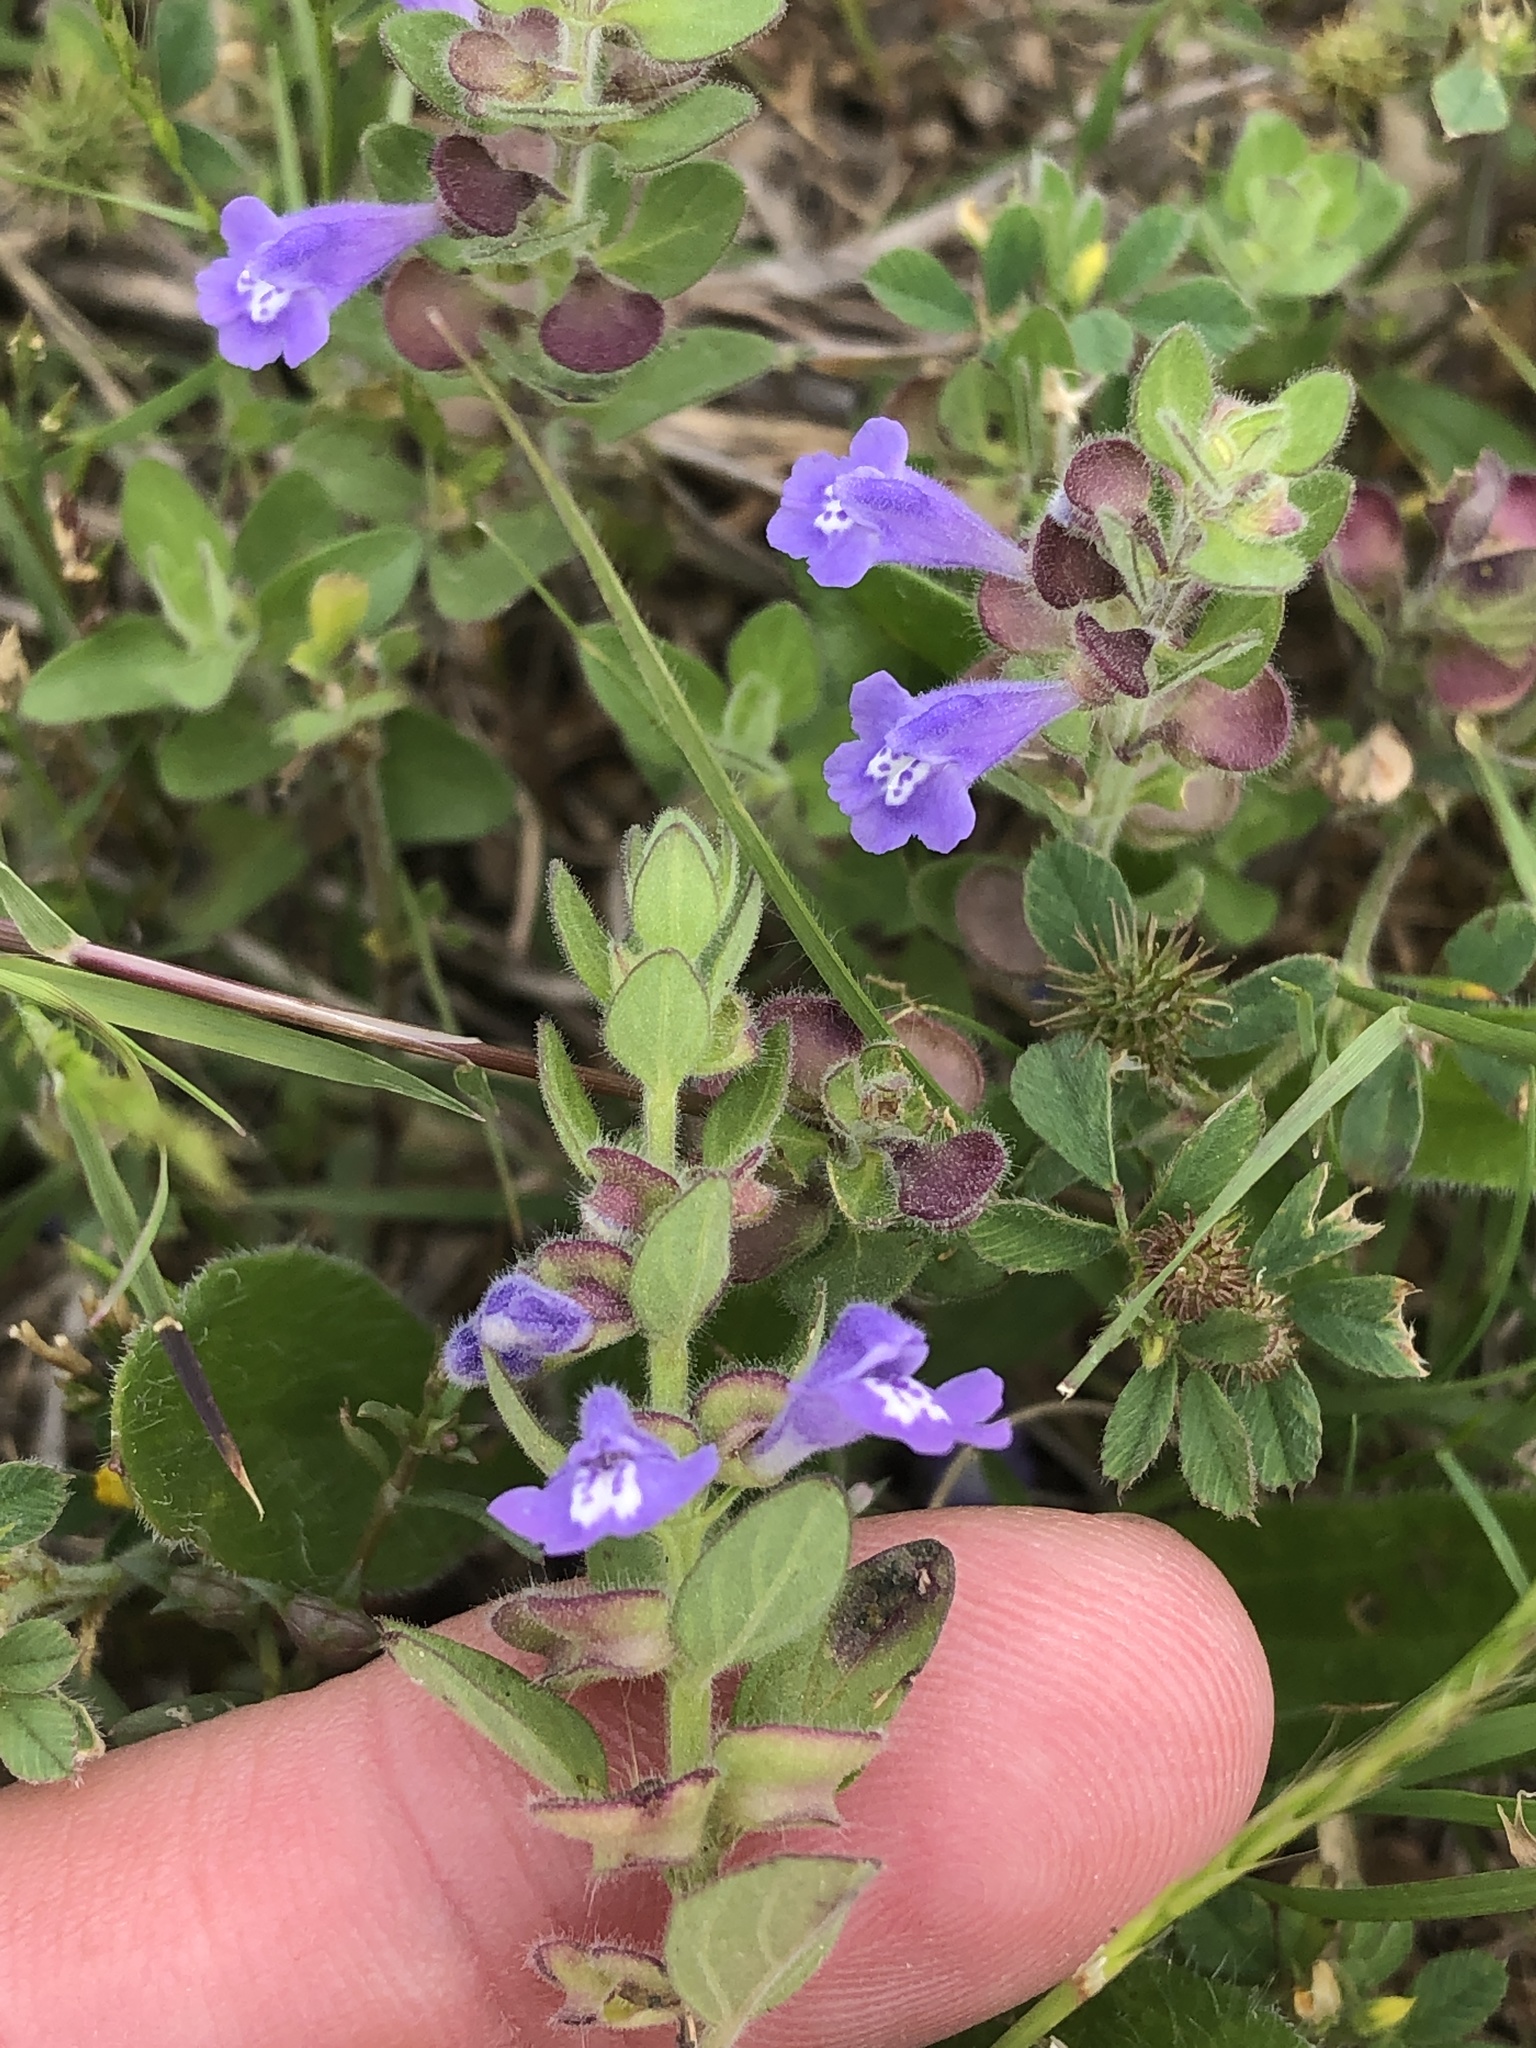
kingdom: Plantae
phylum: Tracheophyta
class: Magnoliopsida
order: Lamiales
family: Lamiaceae
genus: Scutellaria
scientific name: Scutellaria drummondii
